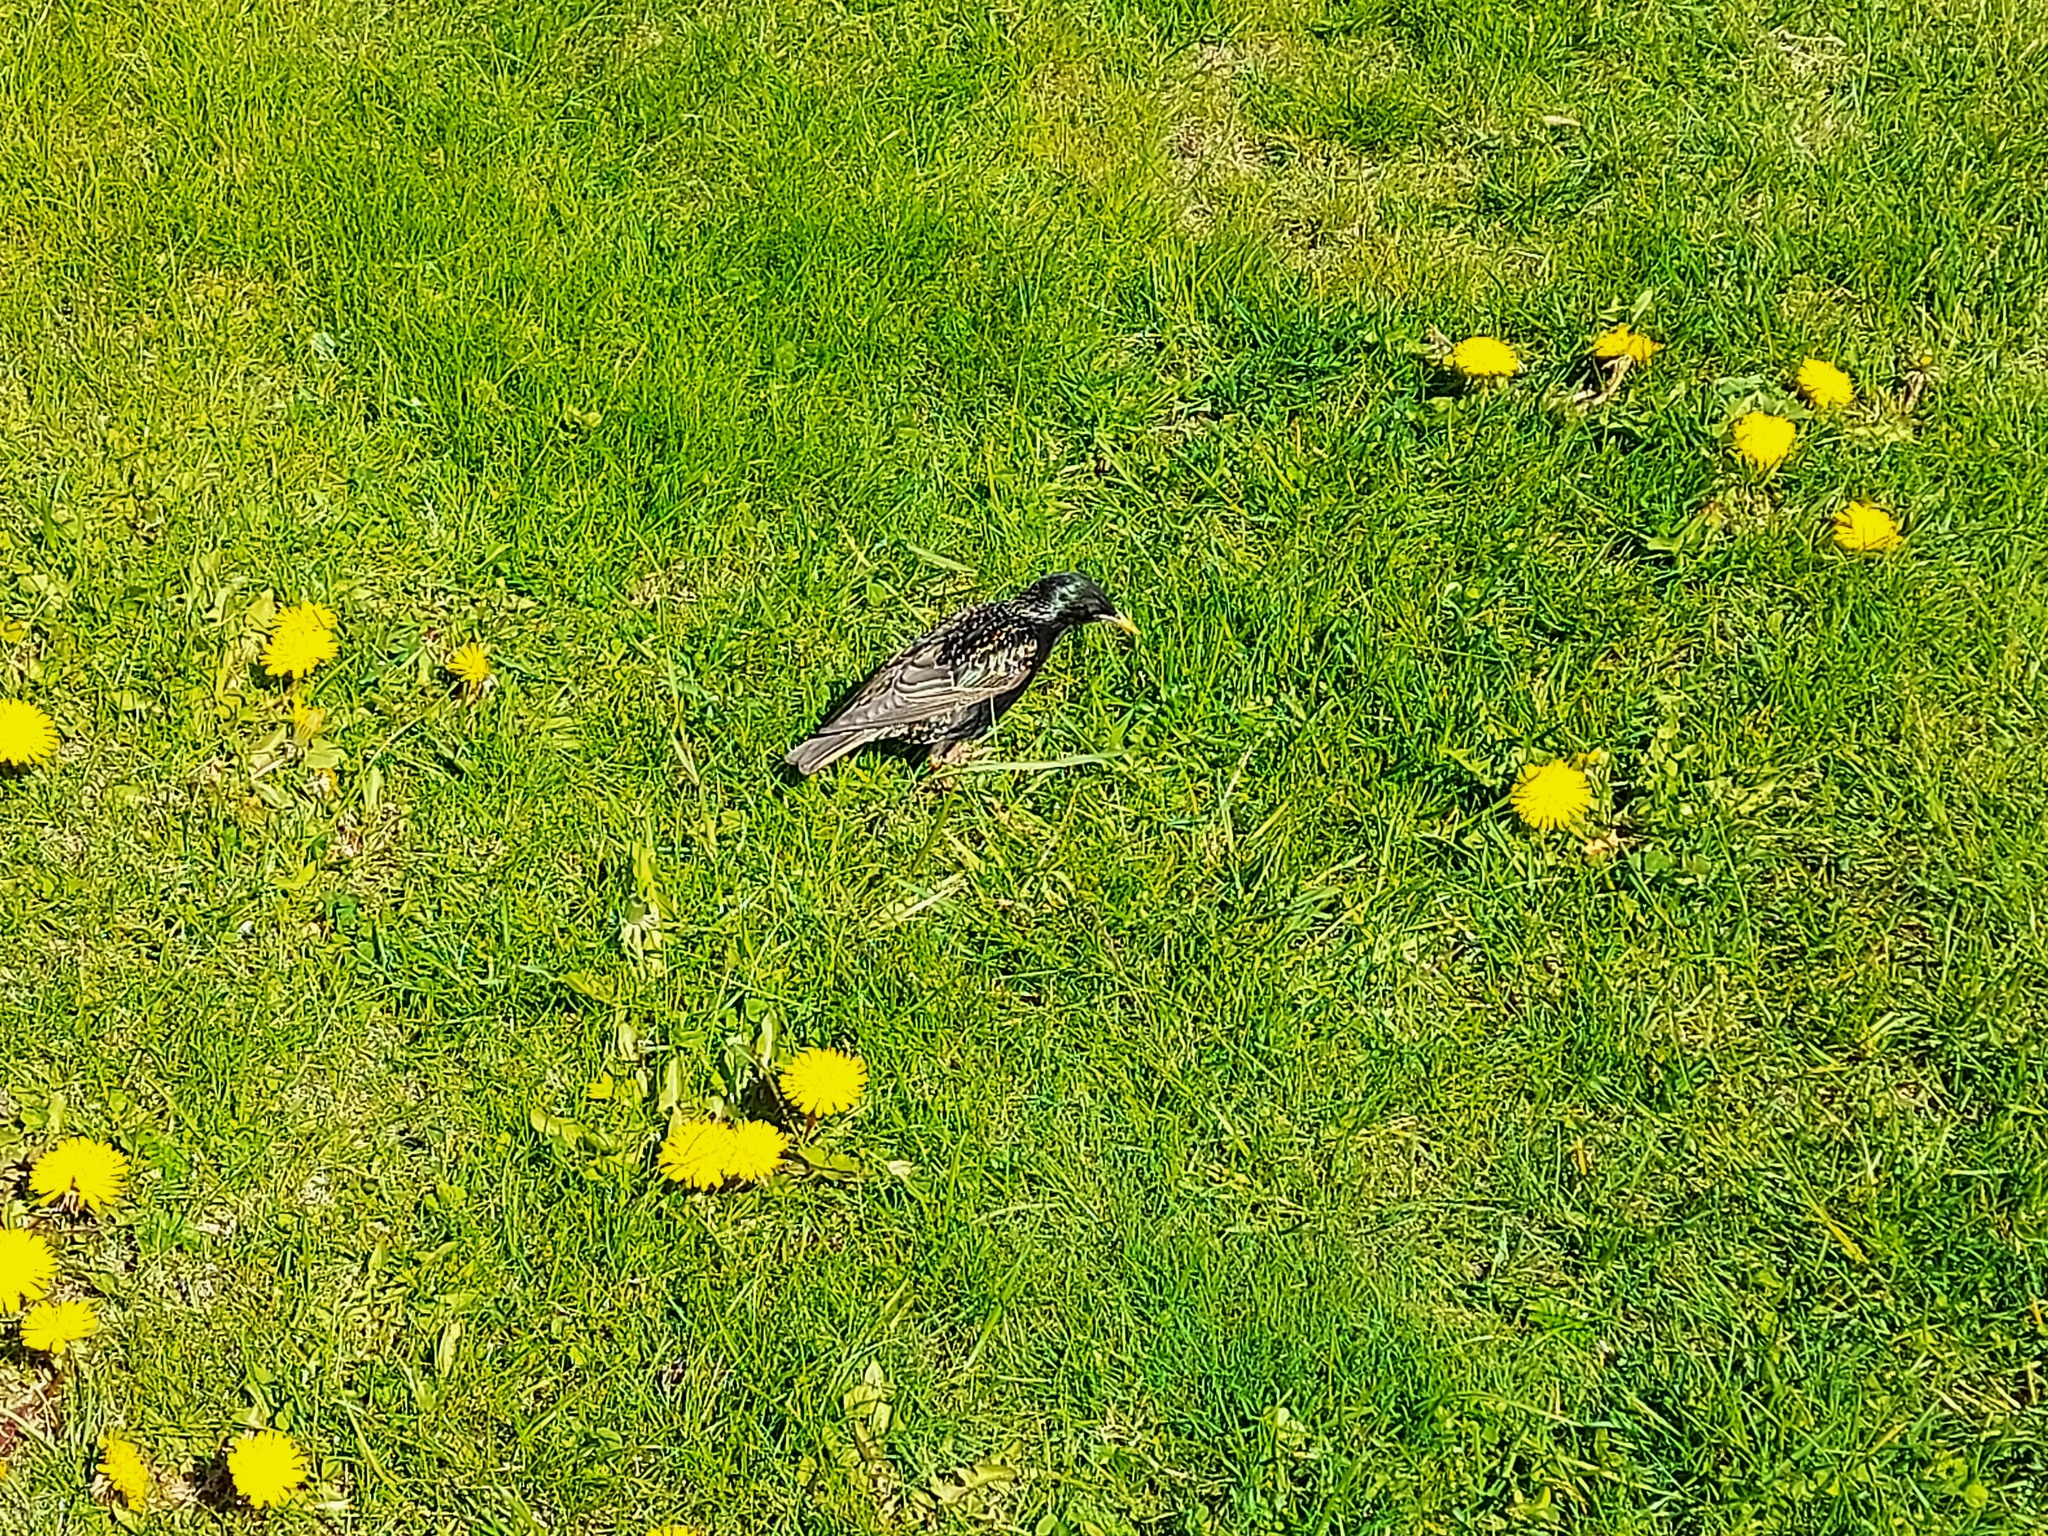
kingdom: Animalia
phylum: Chordata
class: Aves
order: Passeriformes
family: Sturnidae
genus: Sturnus
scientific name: Sturnus vulgaris
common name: Common starling
